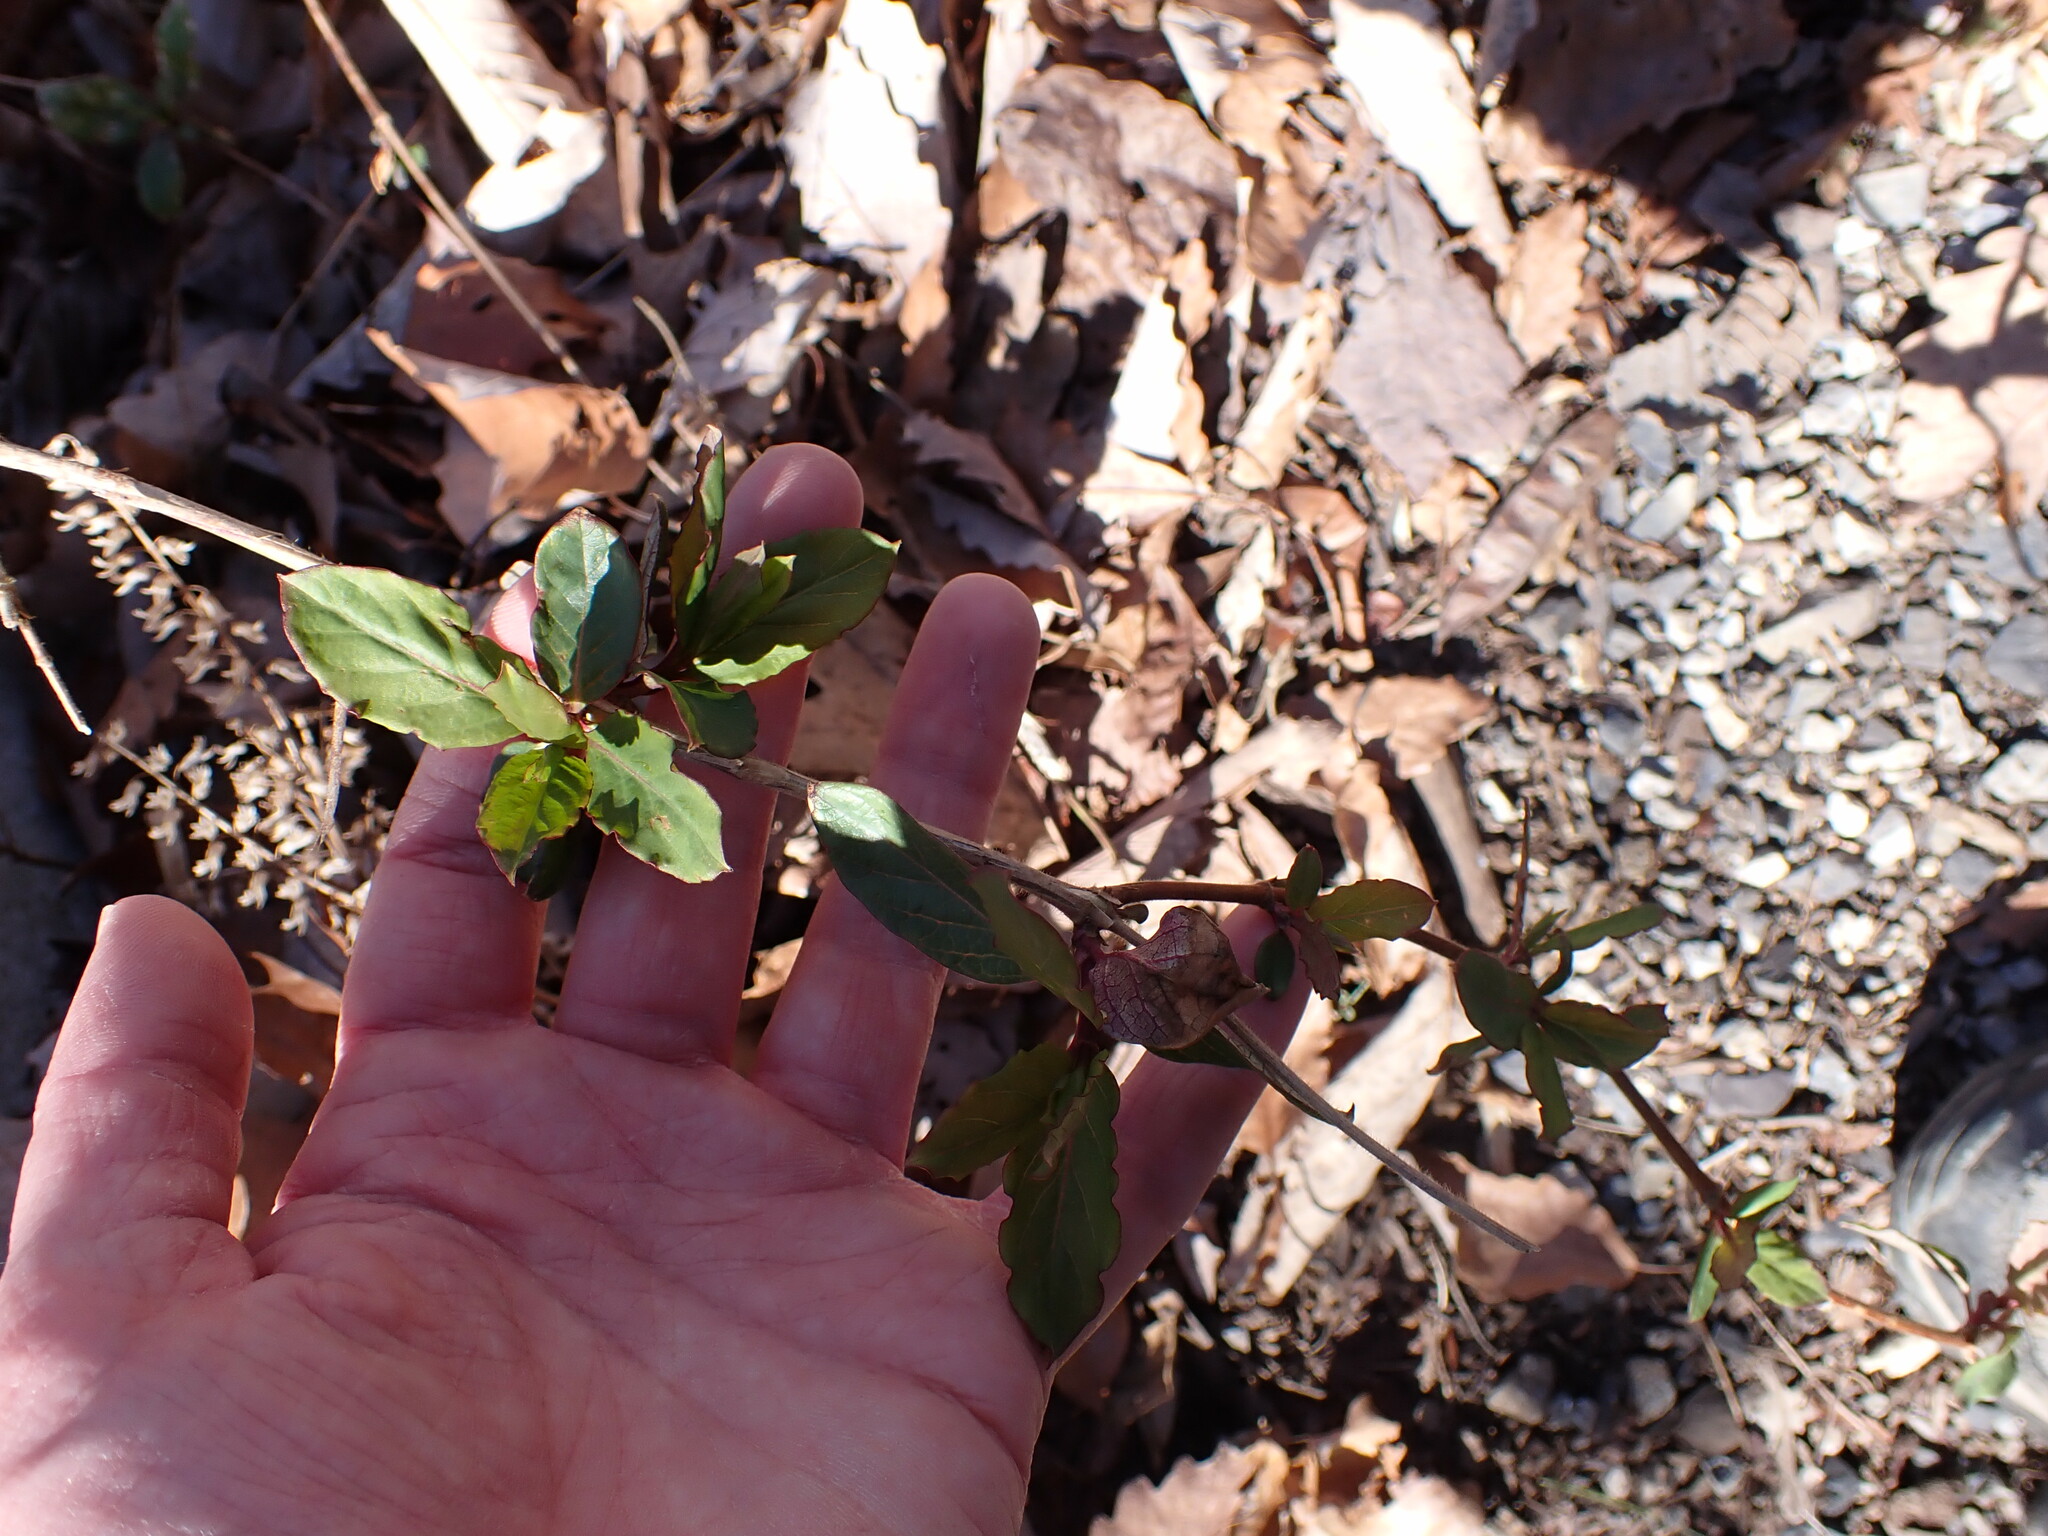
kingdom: Plantae
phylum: Tracheophyta
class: Magnoliopsida
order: Dipsacales
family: Caprifoliaceae
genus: Lonicera
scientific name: Lonicera japonica
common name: Japanese honeysuckle
